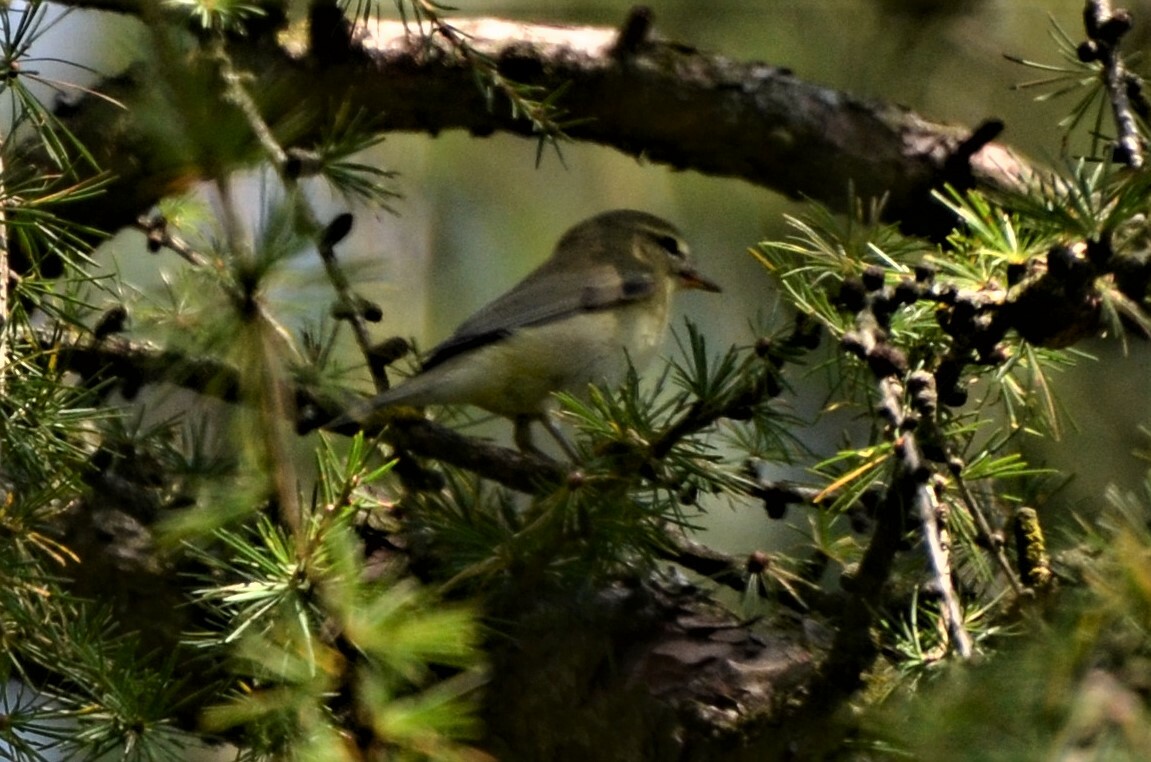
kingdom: Animalia
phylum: Chordata
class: Aves
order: Passeriformes
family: Phylloscopidae
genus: Phylloscopus
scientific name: Phylloscopus trochilus
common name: Willow warbler
